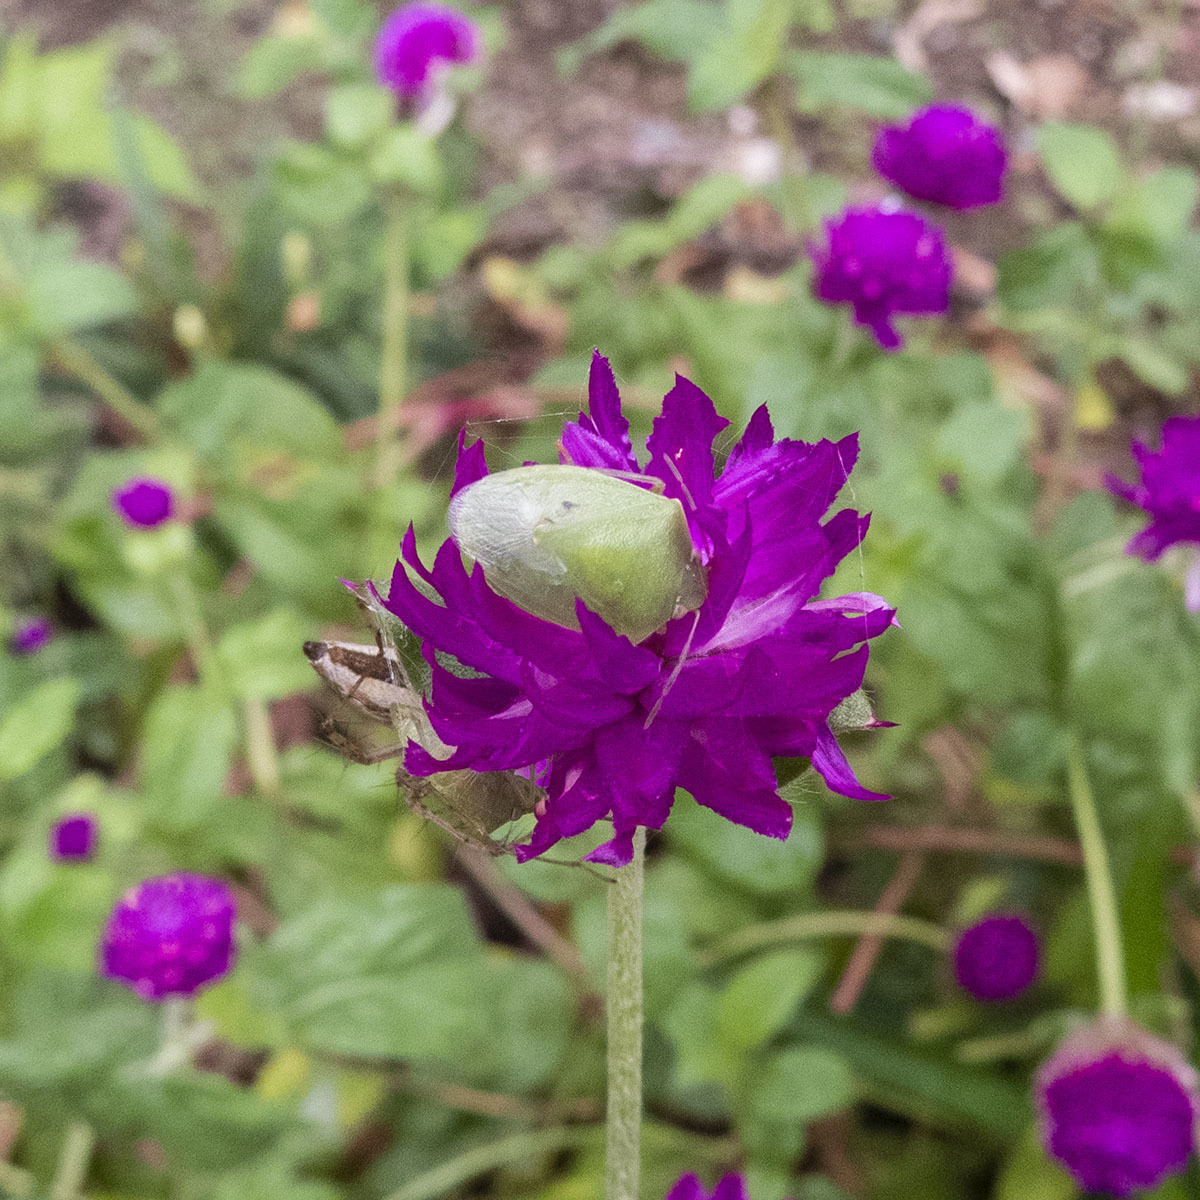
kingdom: Animalia
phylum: Arthropoda
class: Insecta
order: Hemiptera
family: Pentatomidae
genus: Acrosternum
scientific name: Acrosternum gramineum
